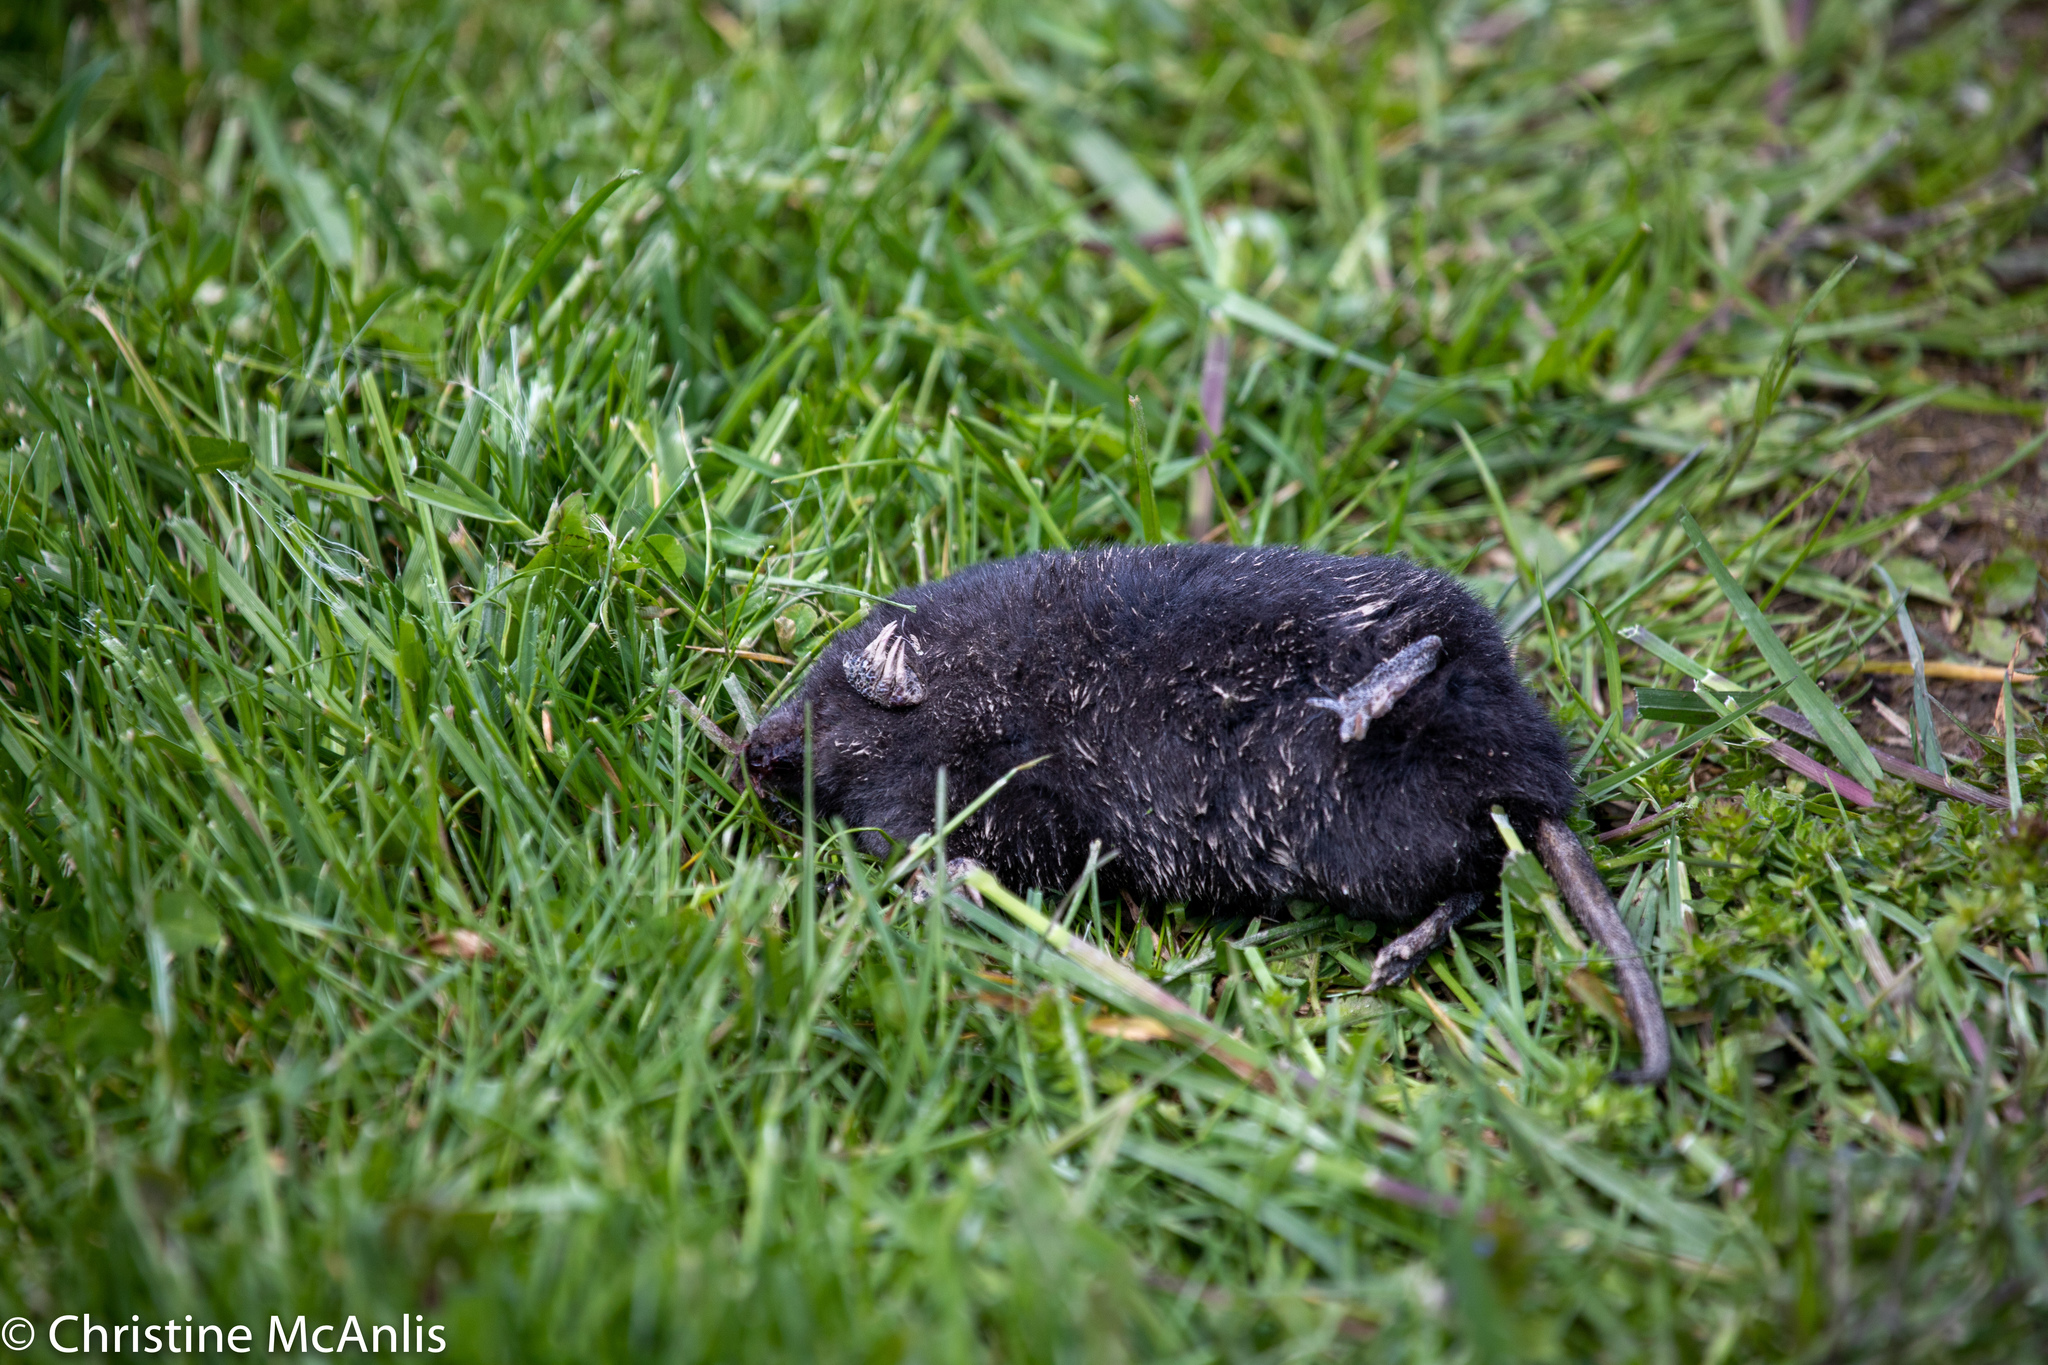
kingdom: Animalia
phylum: Chordata
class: Mammalia
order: Soricomorpha
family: Talpidae
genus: Condylura
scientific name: Condylura cristata
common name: Star-nosed mole
